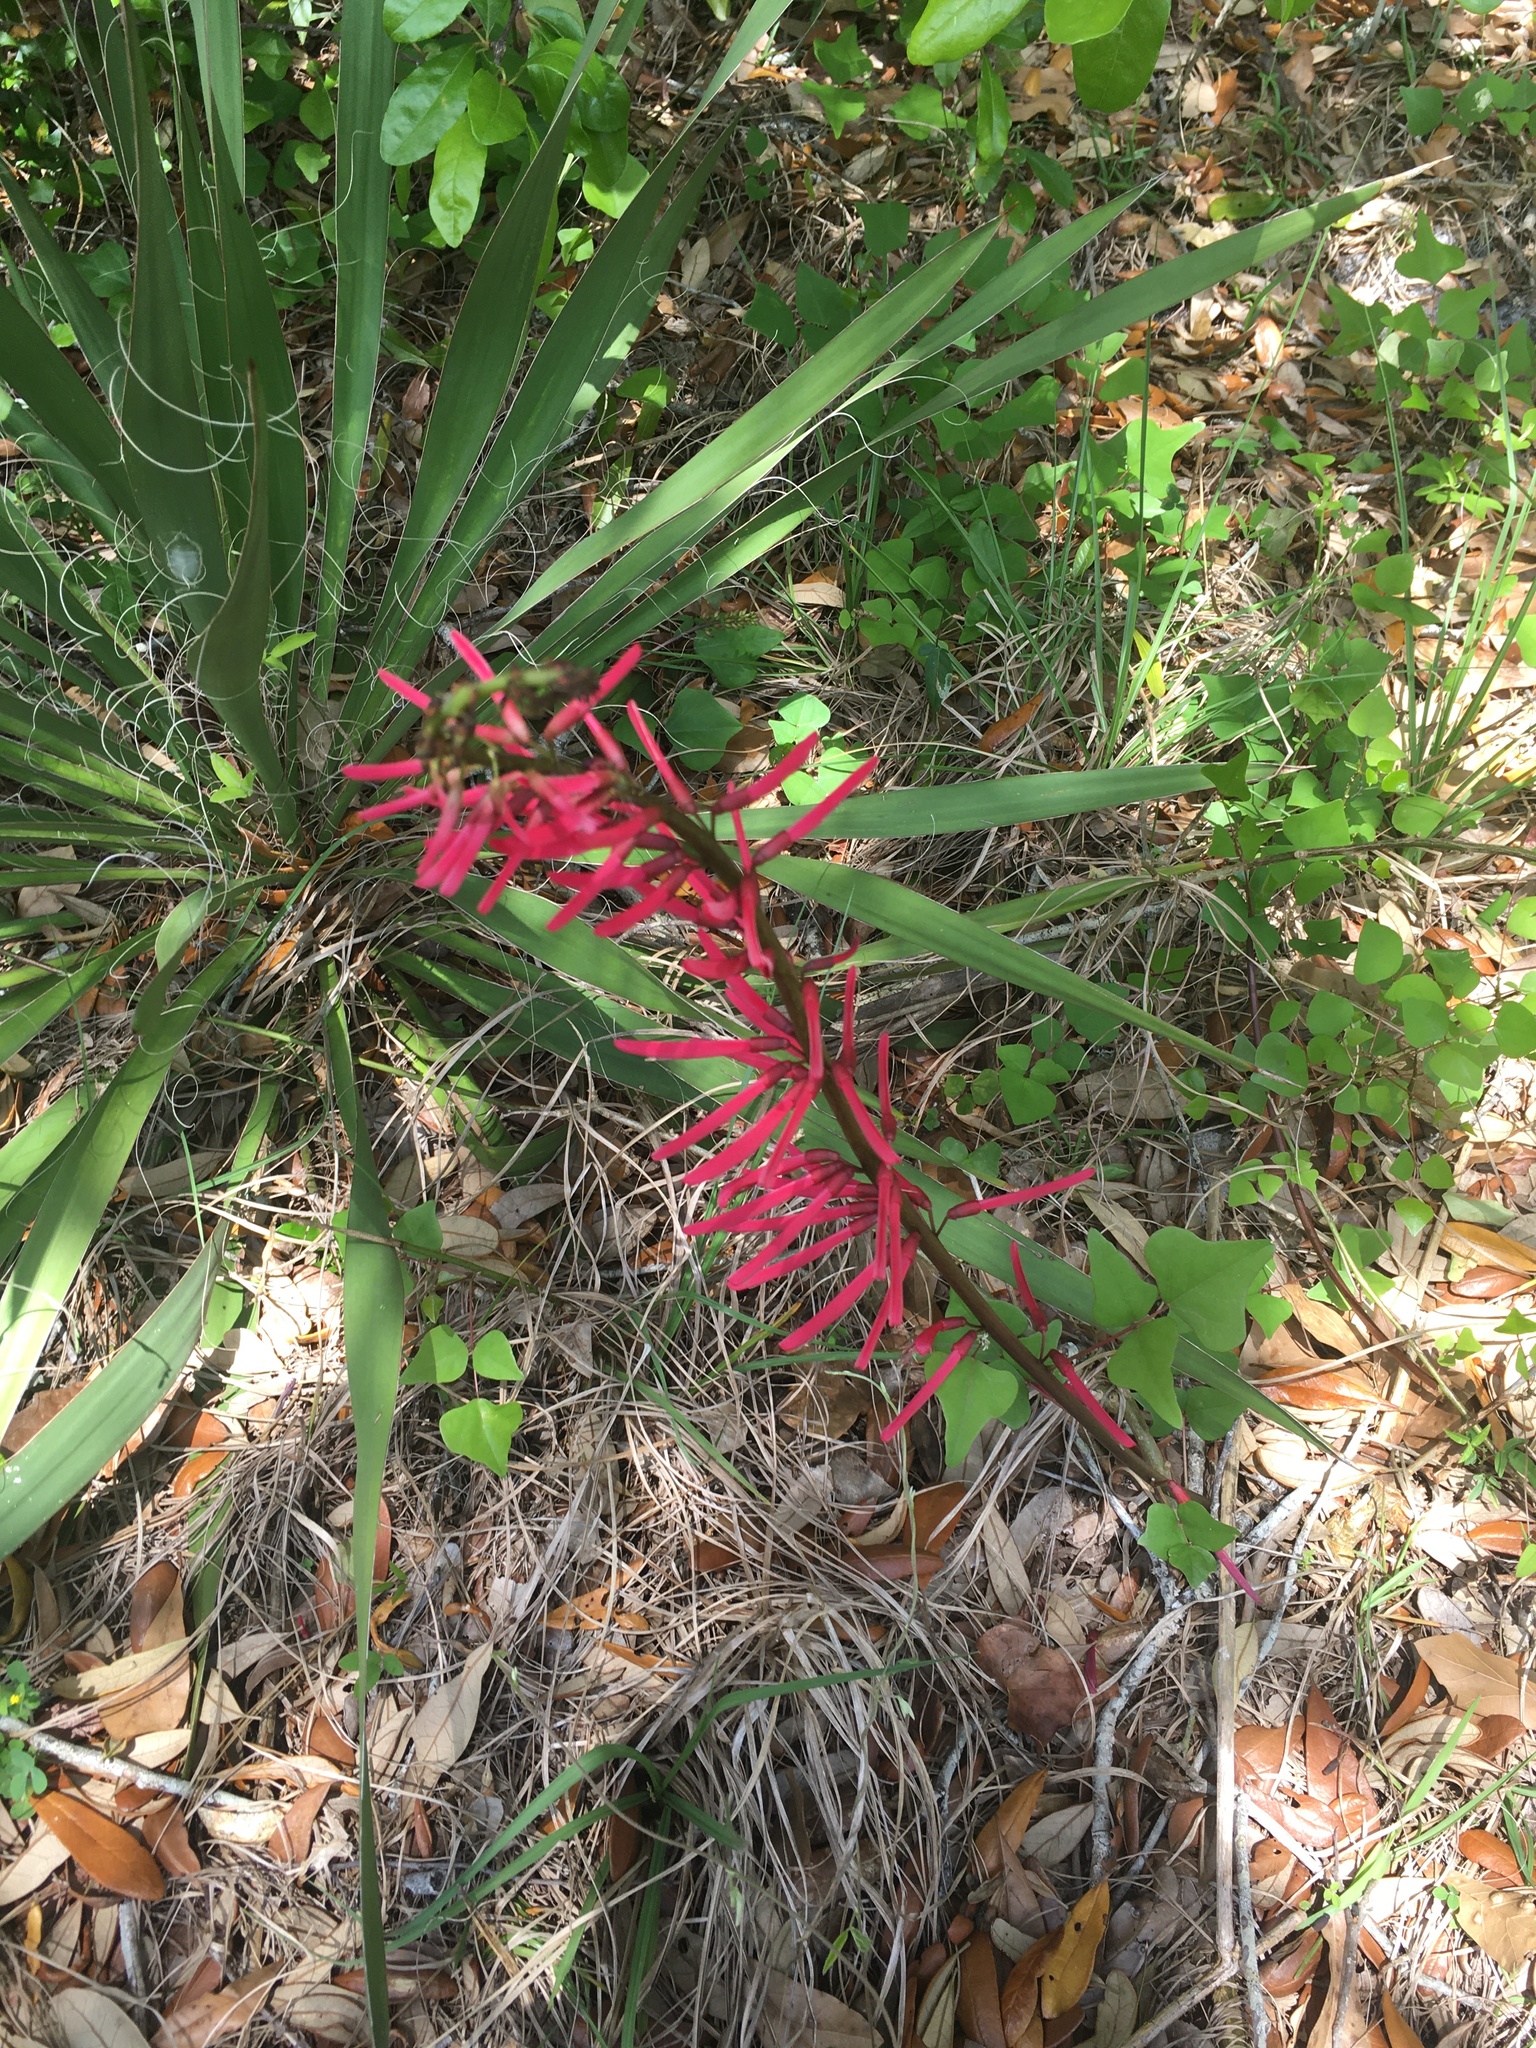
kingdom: Plantae
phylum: Tracheophyta
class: Magnoliopsida
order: Fabales
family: Fabaceae
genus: Erythrina
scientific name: Erythrina herbacea
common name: Coral-bean
